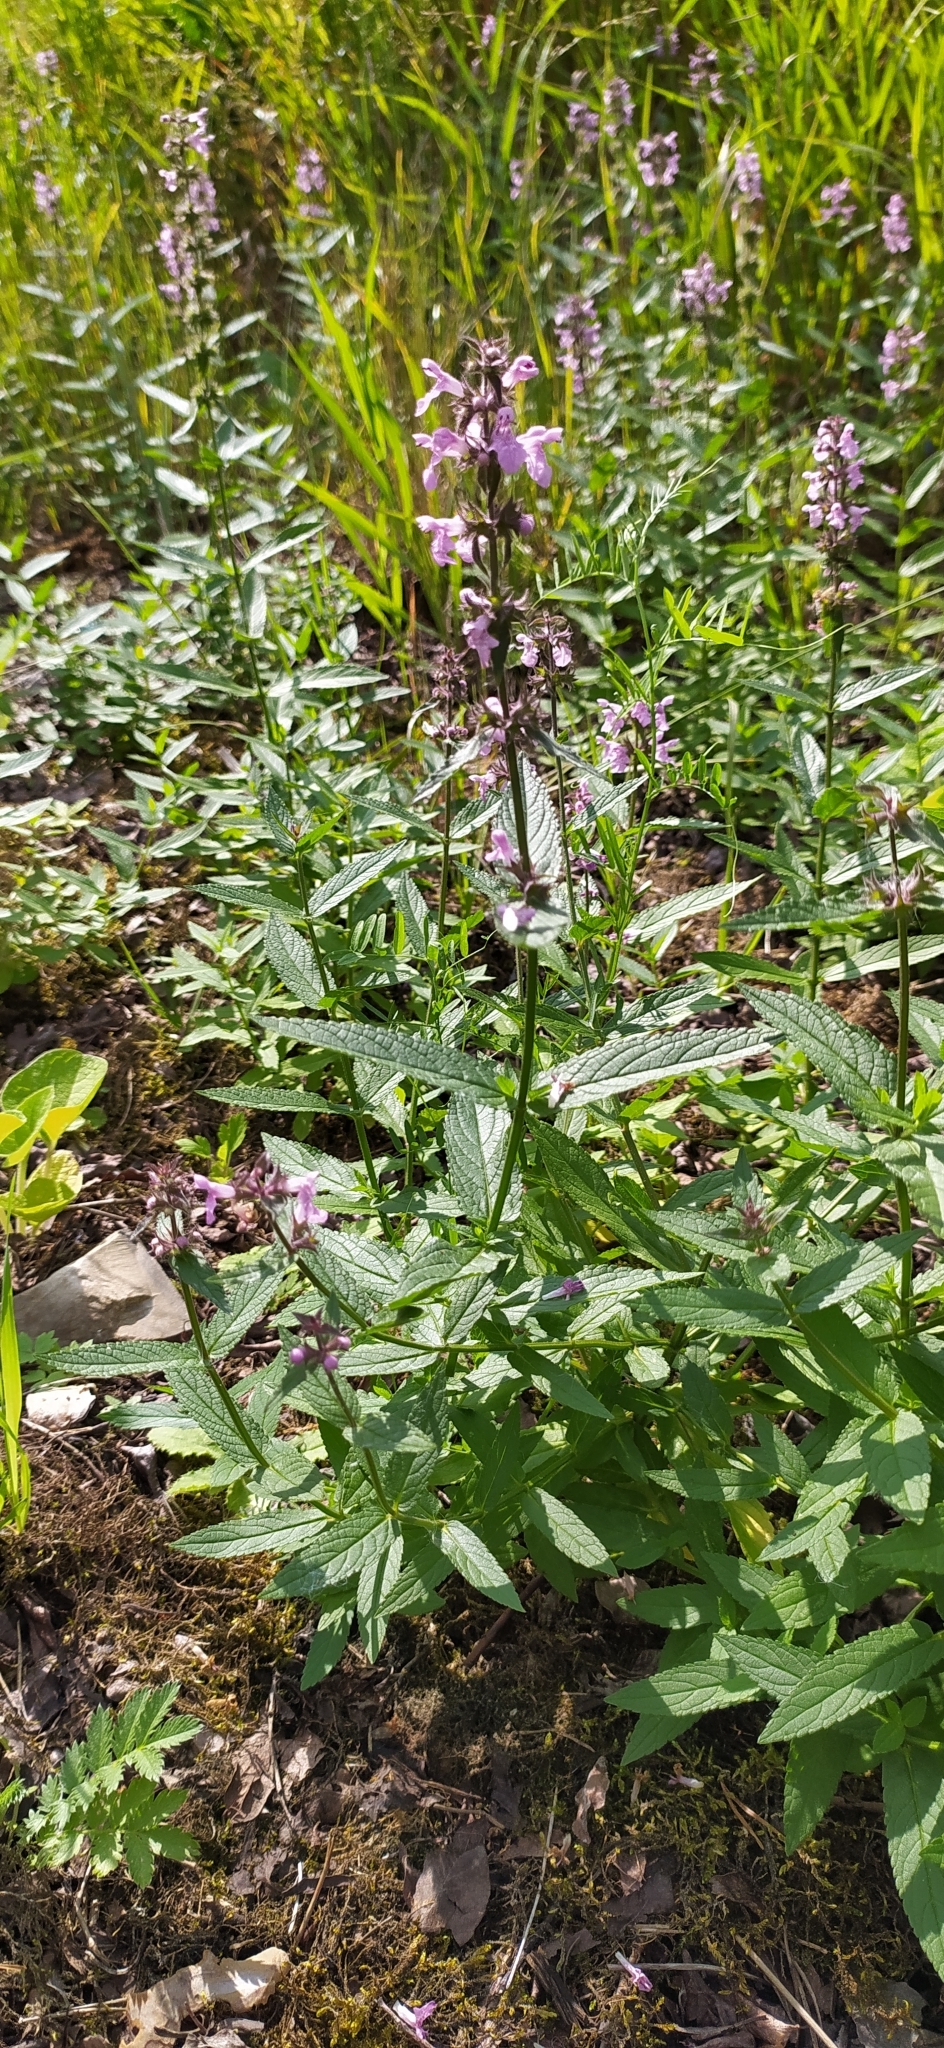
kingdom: Plantae
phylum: Tracheophyta
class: Magnoliopsida
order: Lamiales
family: Lamiaceae
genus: Stachys
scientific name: Stachys palustris
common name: Marsh woundwort
